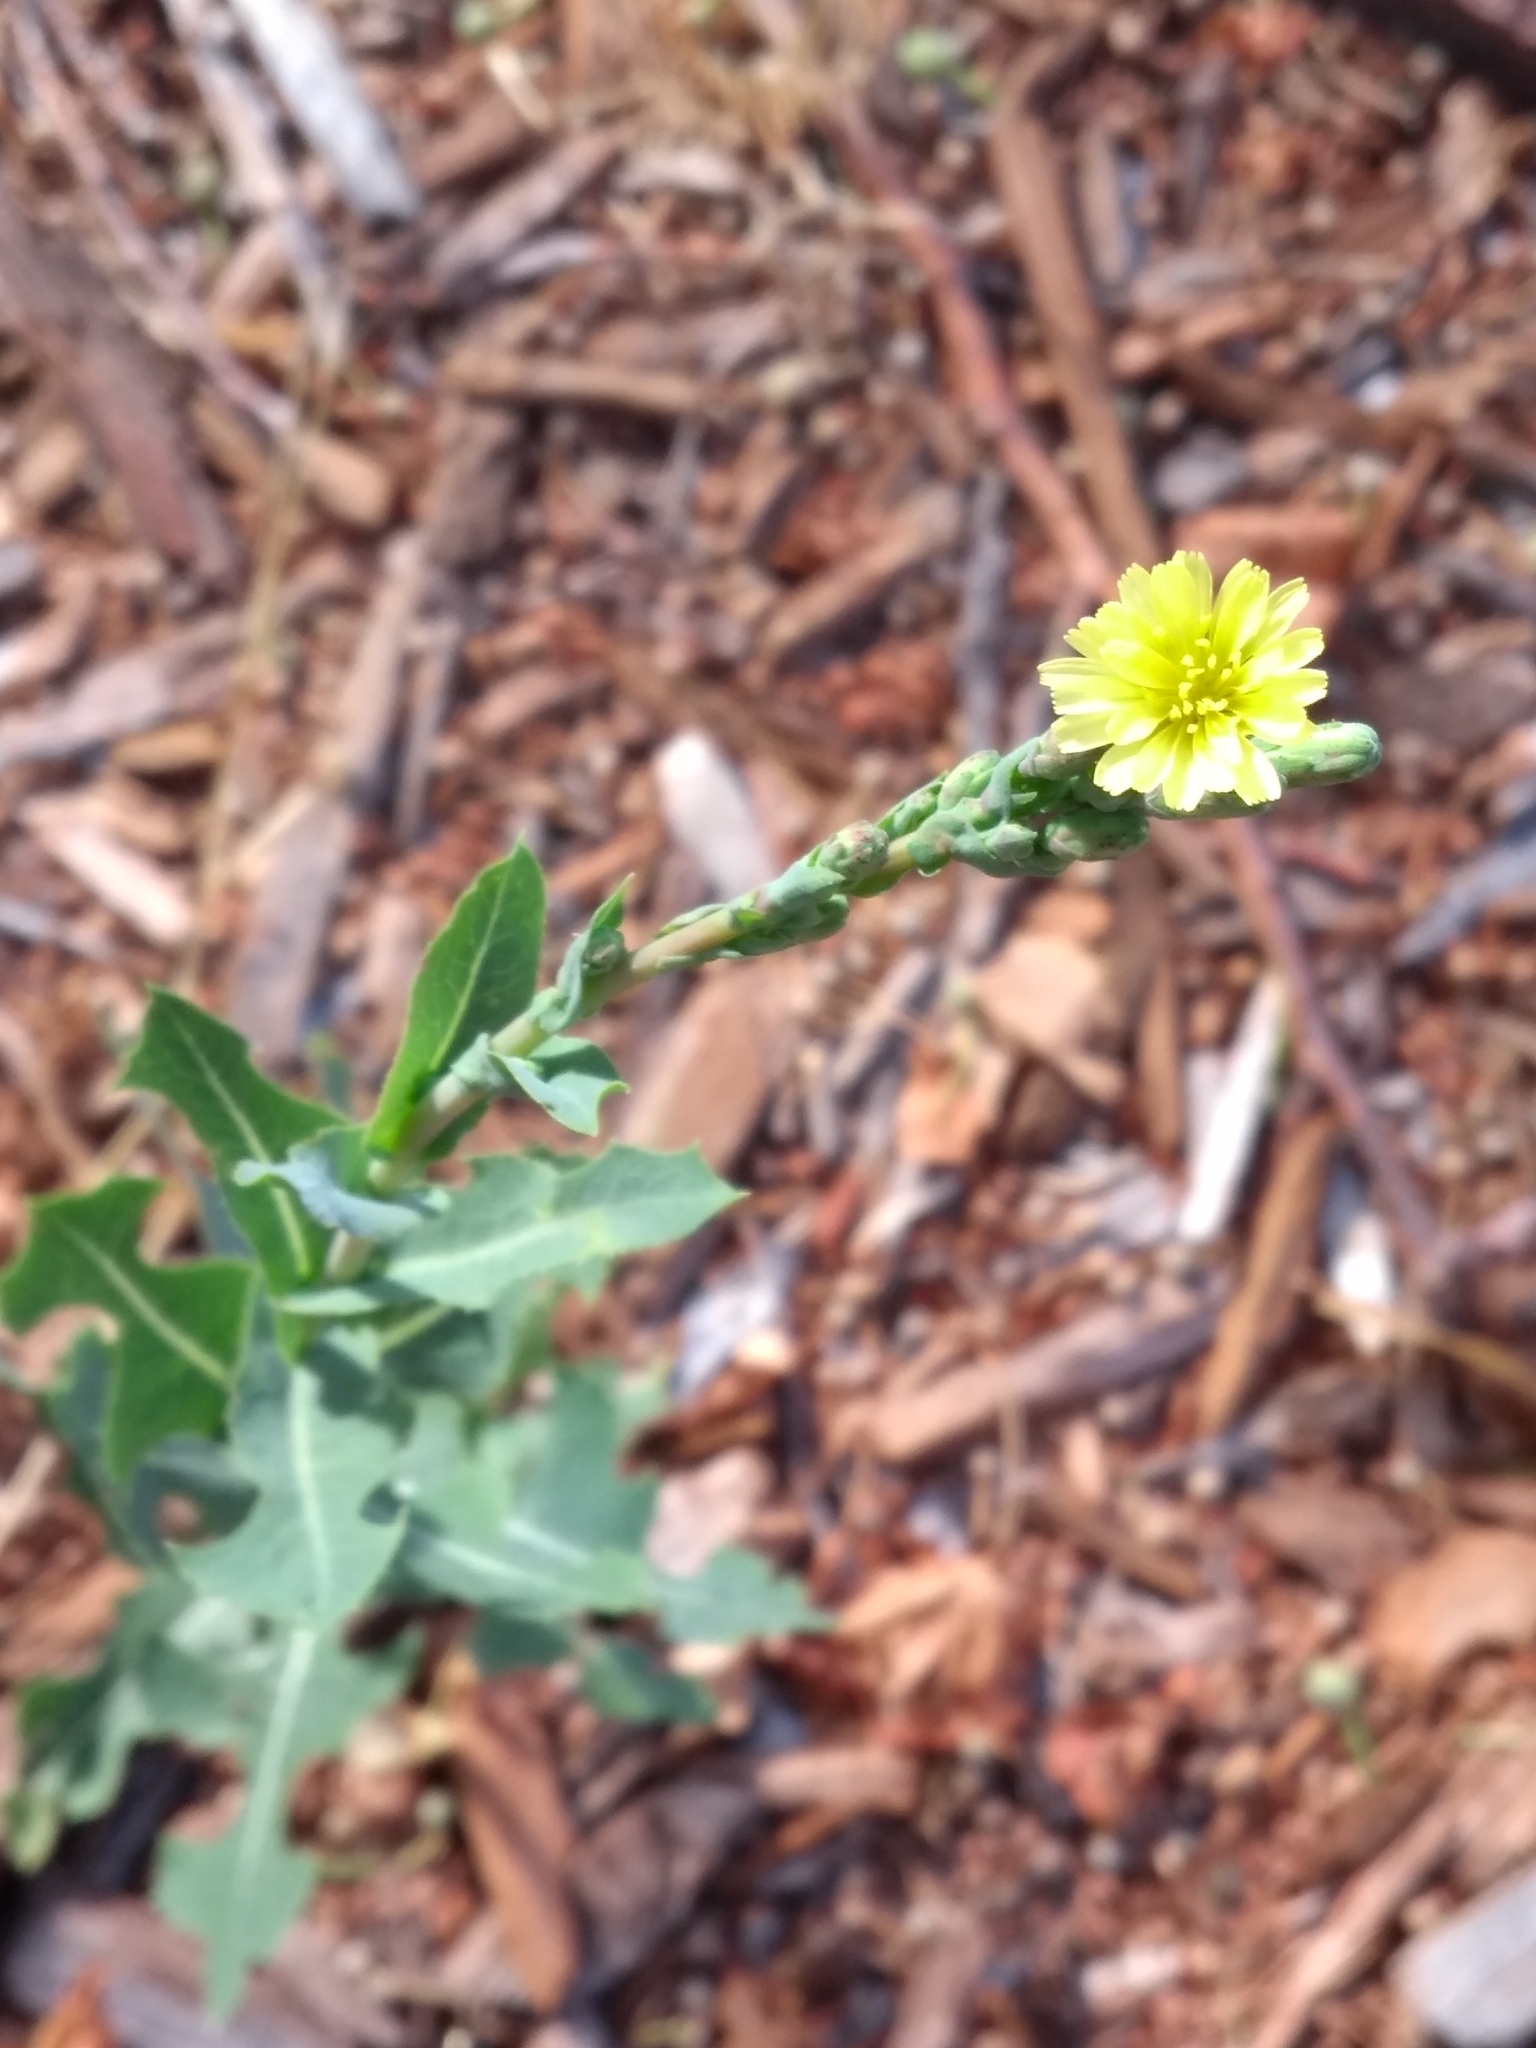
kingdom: Plantae
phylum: Tracheophyta
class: Magnoliopsida
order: Asterales
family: Asteraceae
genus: Lactuca
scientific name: Lactuca serriola
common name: Prickly lettuce
